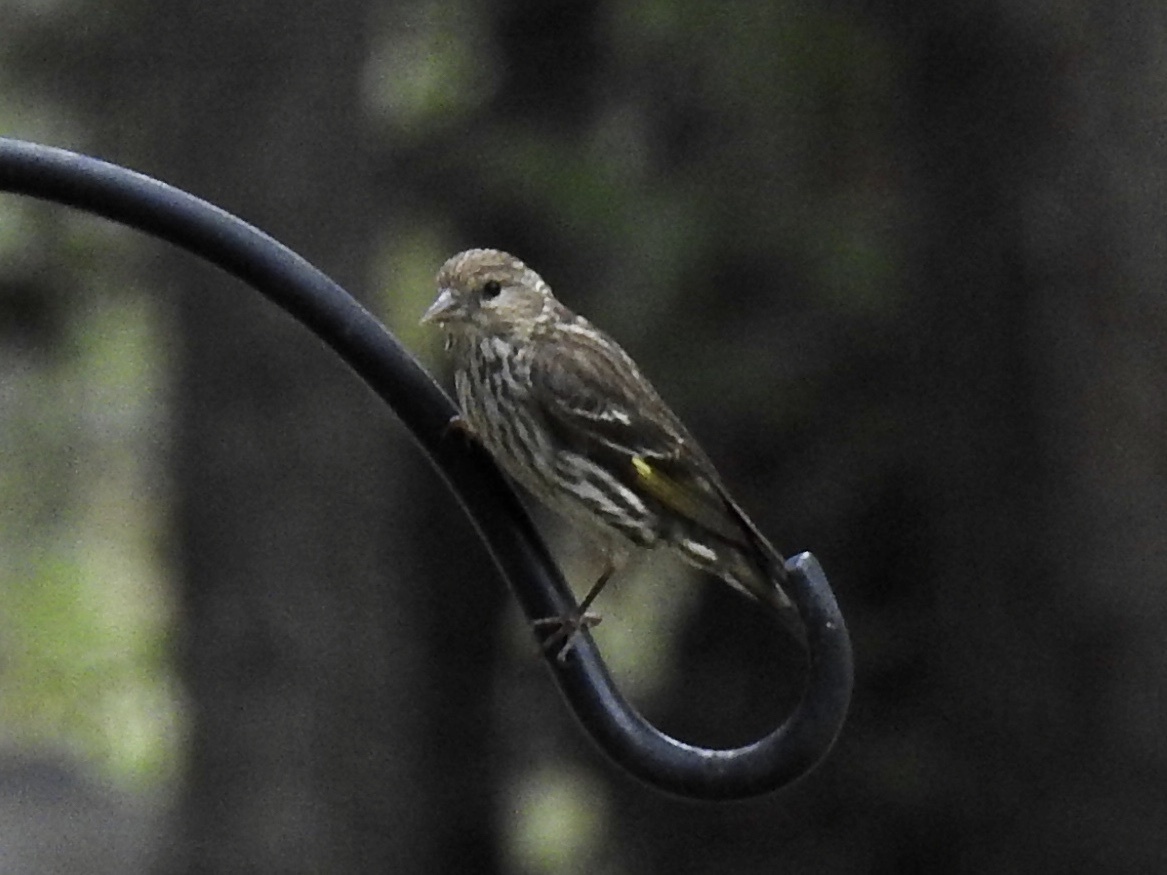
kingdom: Animalia
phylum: Chordata
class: Aves
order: Passeriformes
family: Fringillidae
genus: Spinus
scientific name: Spinus pinus
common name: Pine siskin
